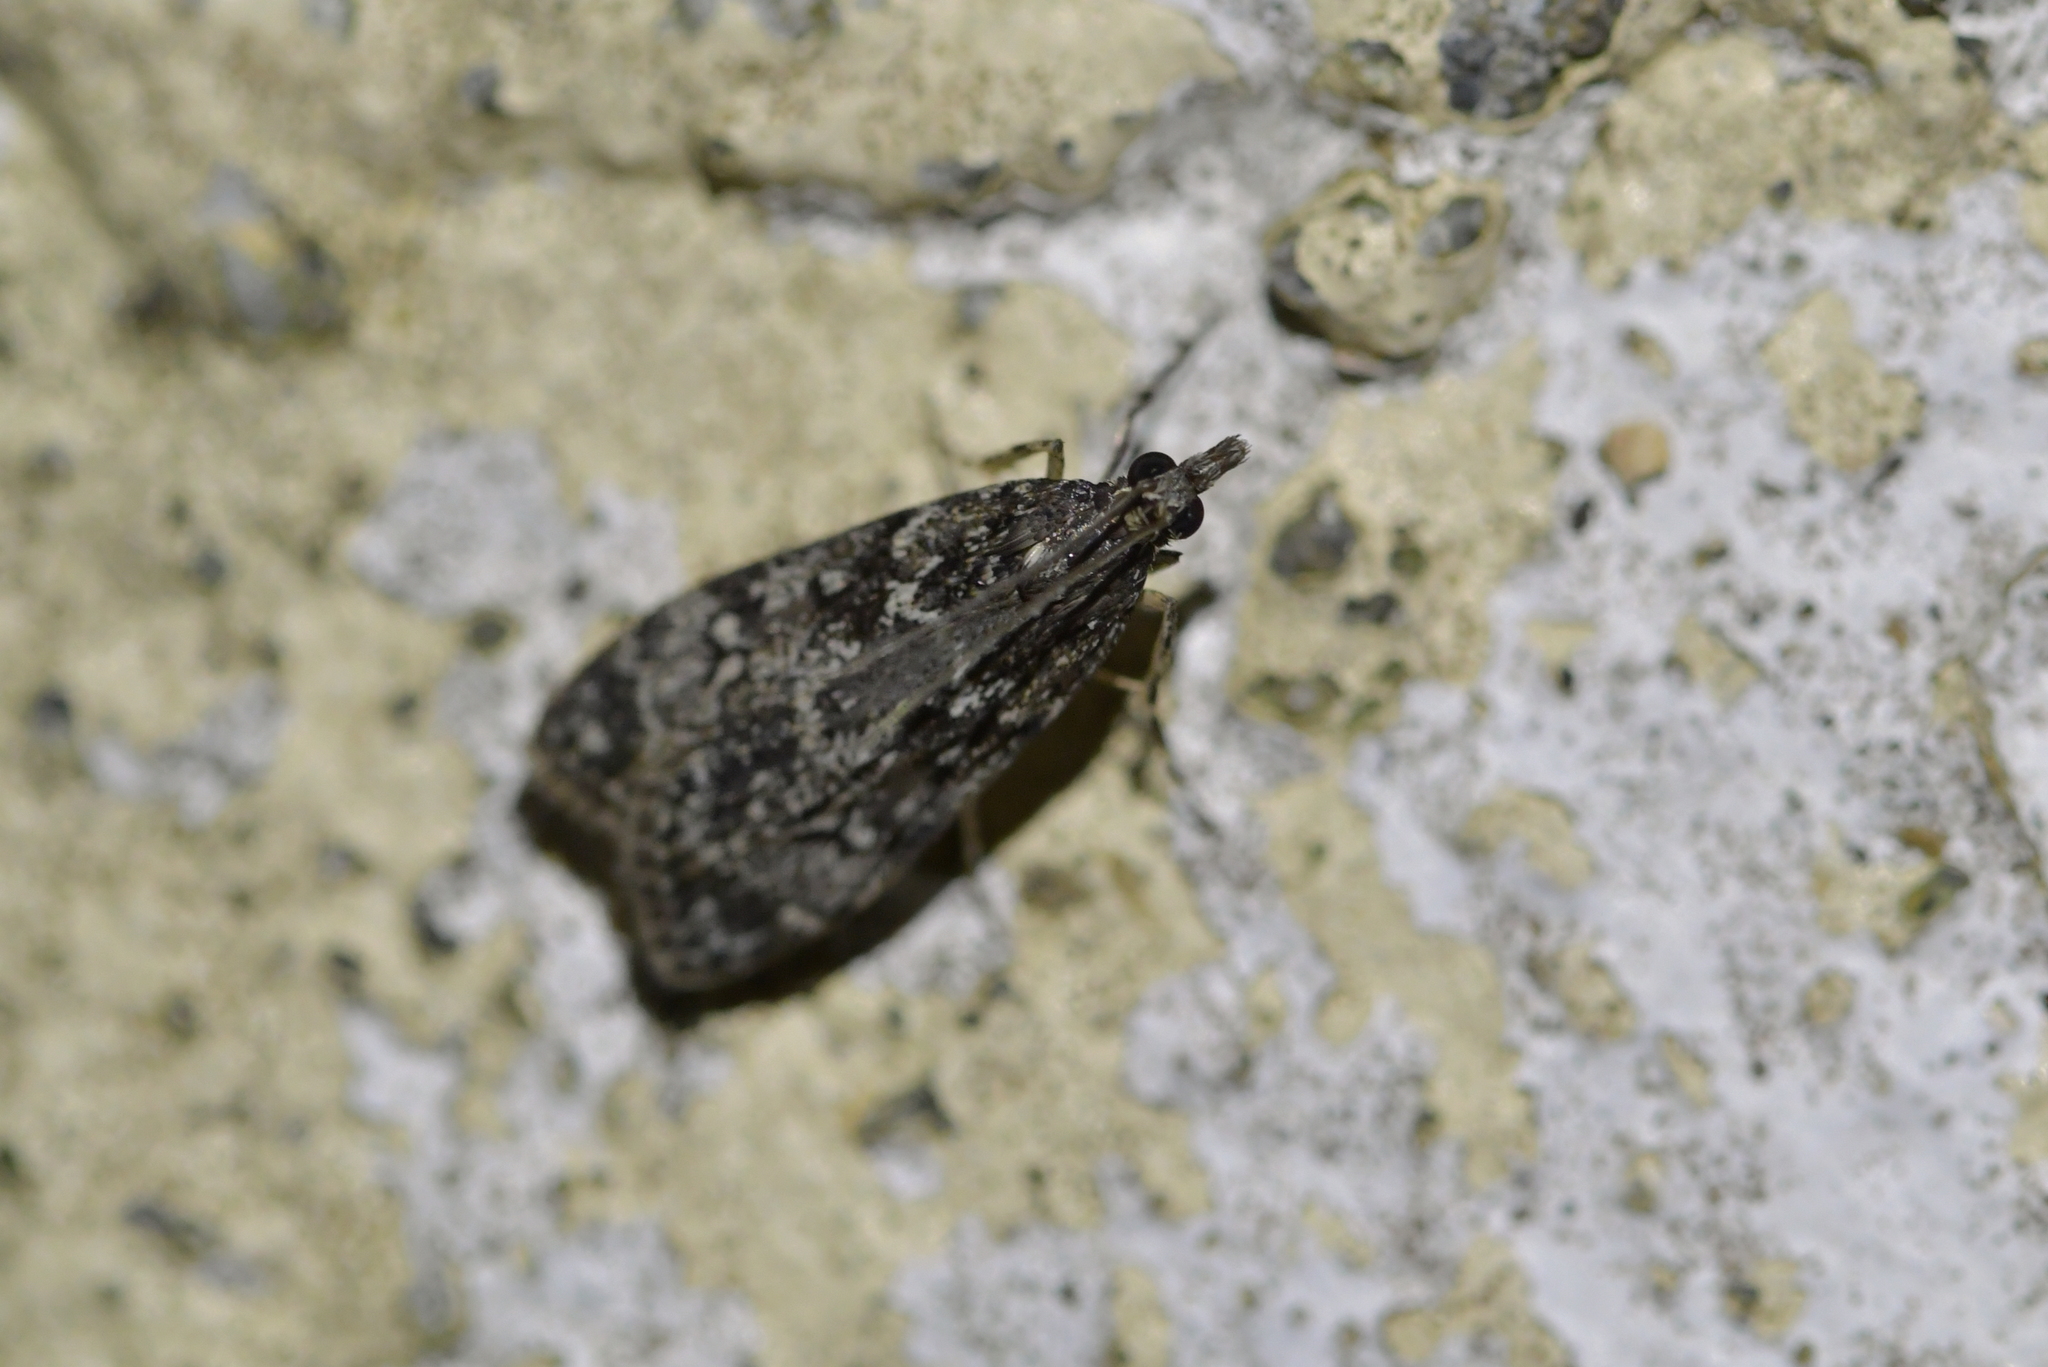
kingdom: Animalia
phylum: Arthropoda
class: Insecta
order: Lepidoptera
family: Crambidae
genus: Eudonia
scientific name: Eudonia philerga
